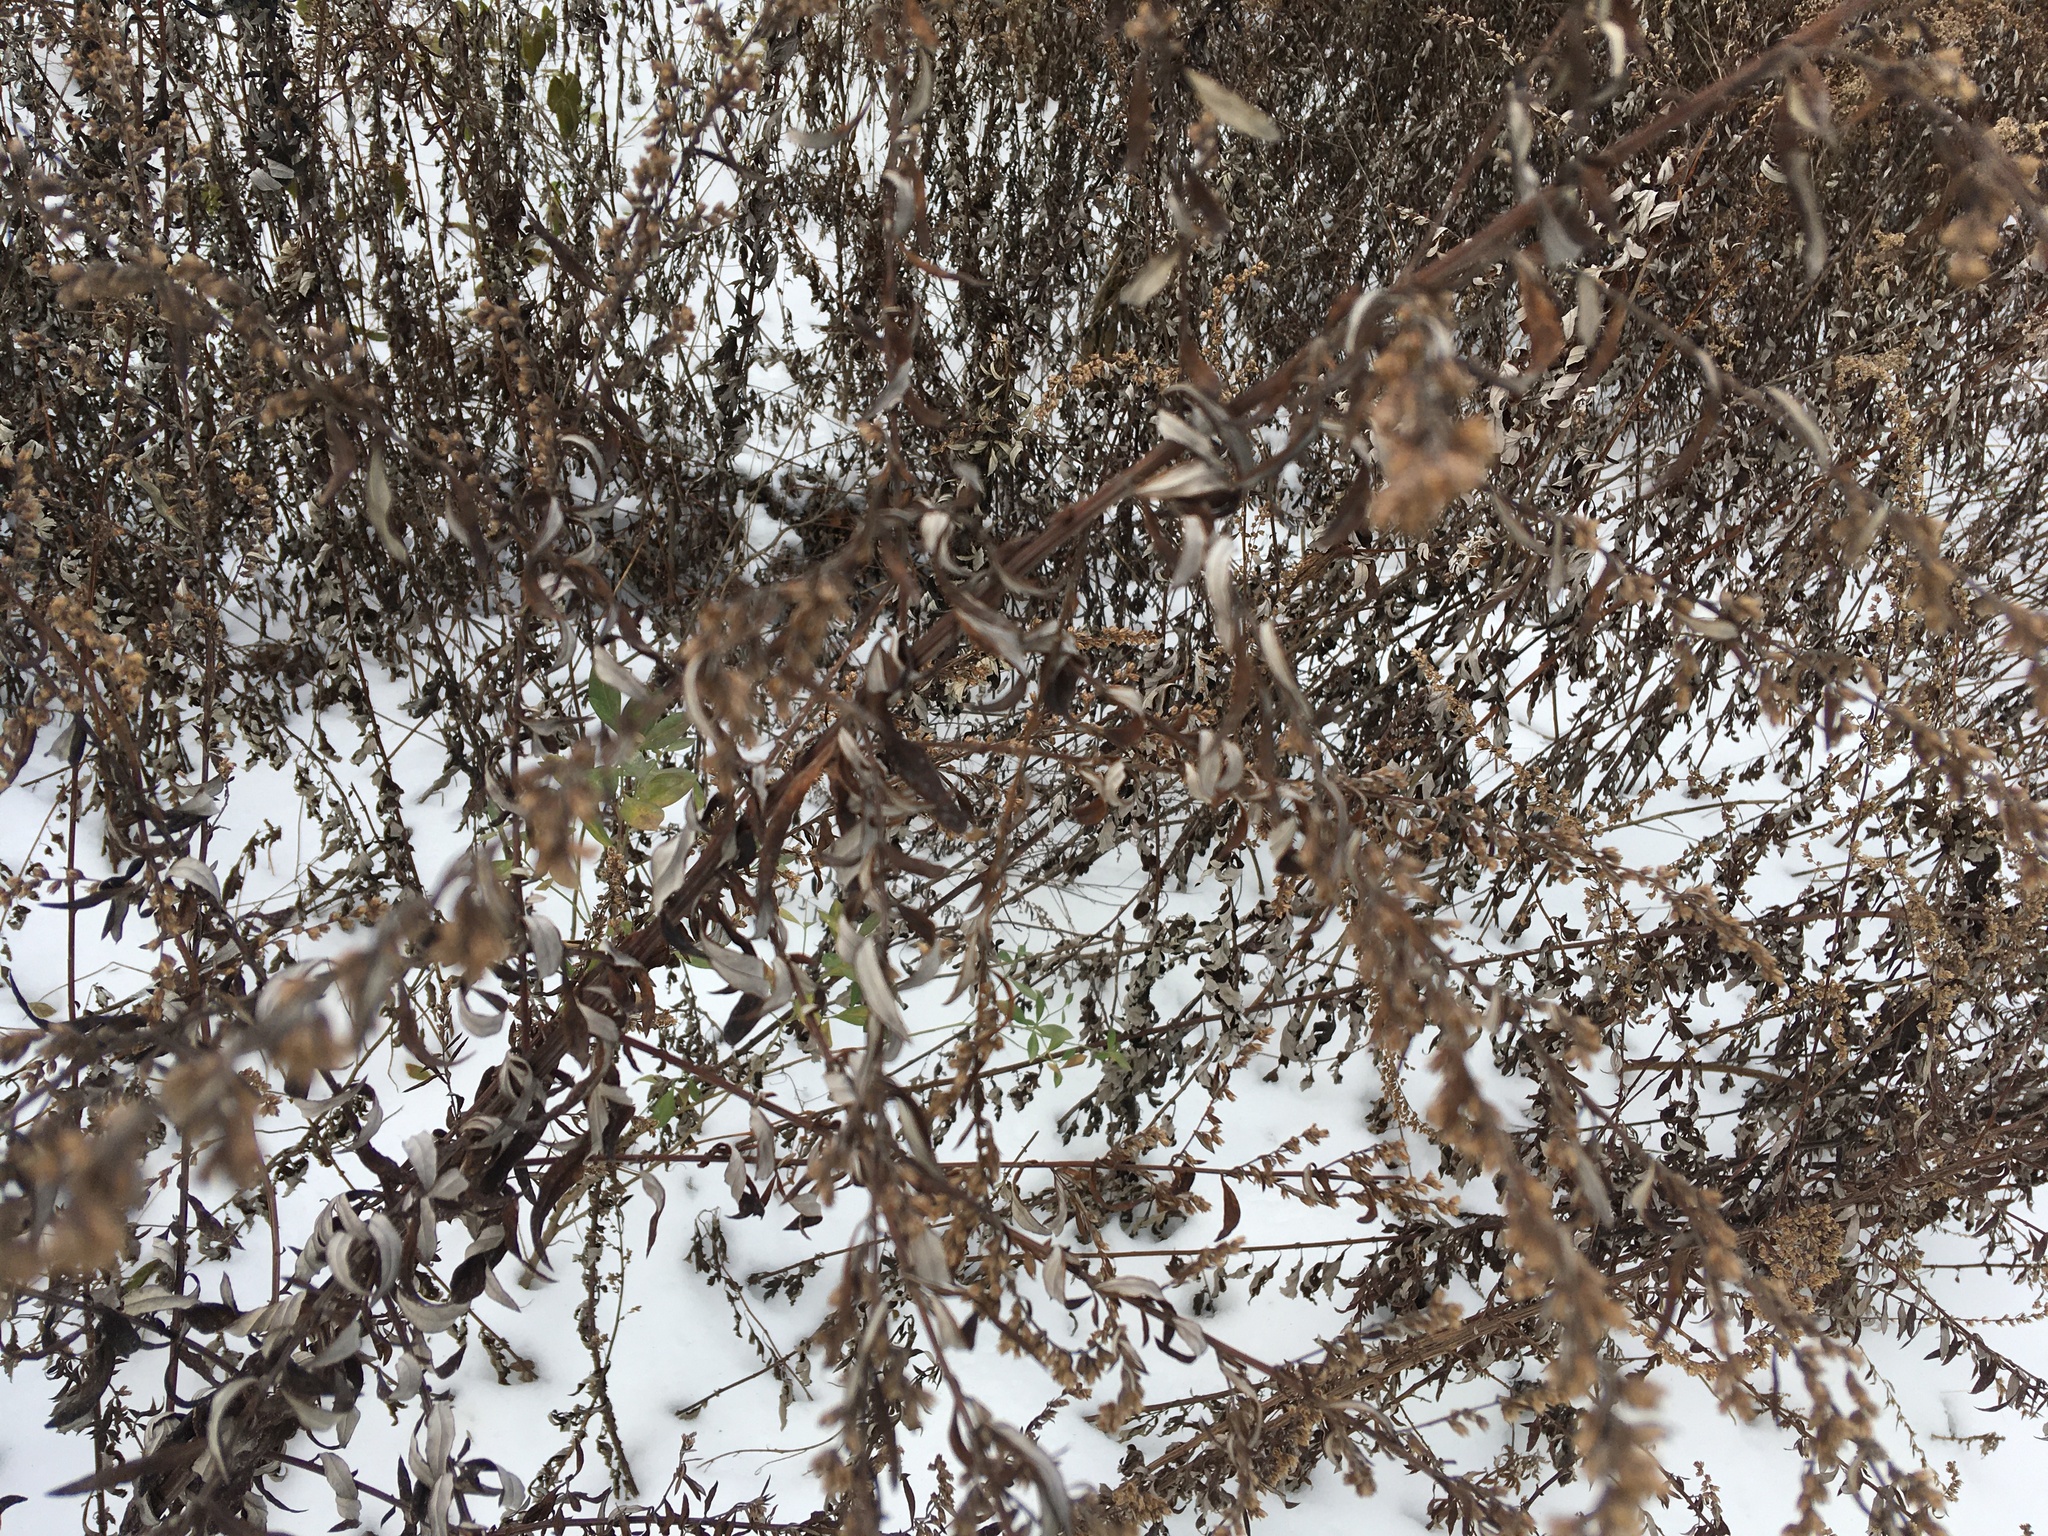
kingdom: Plantae
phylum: Tracheophyta
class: Magnoliopsida
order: Asterales
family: Asteraceae
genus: Artemisia
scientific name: Artemisia vulgaris
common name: Mugwort
